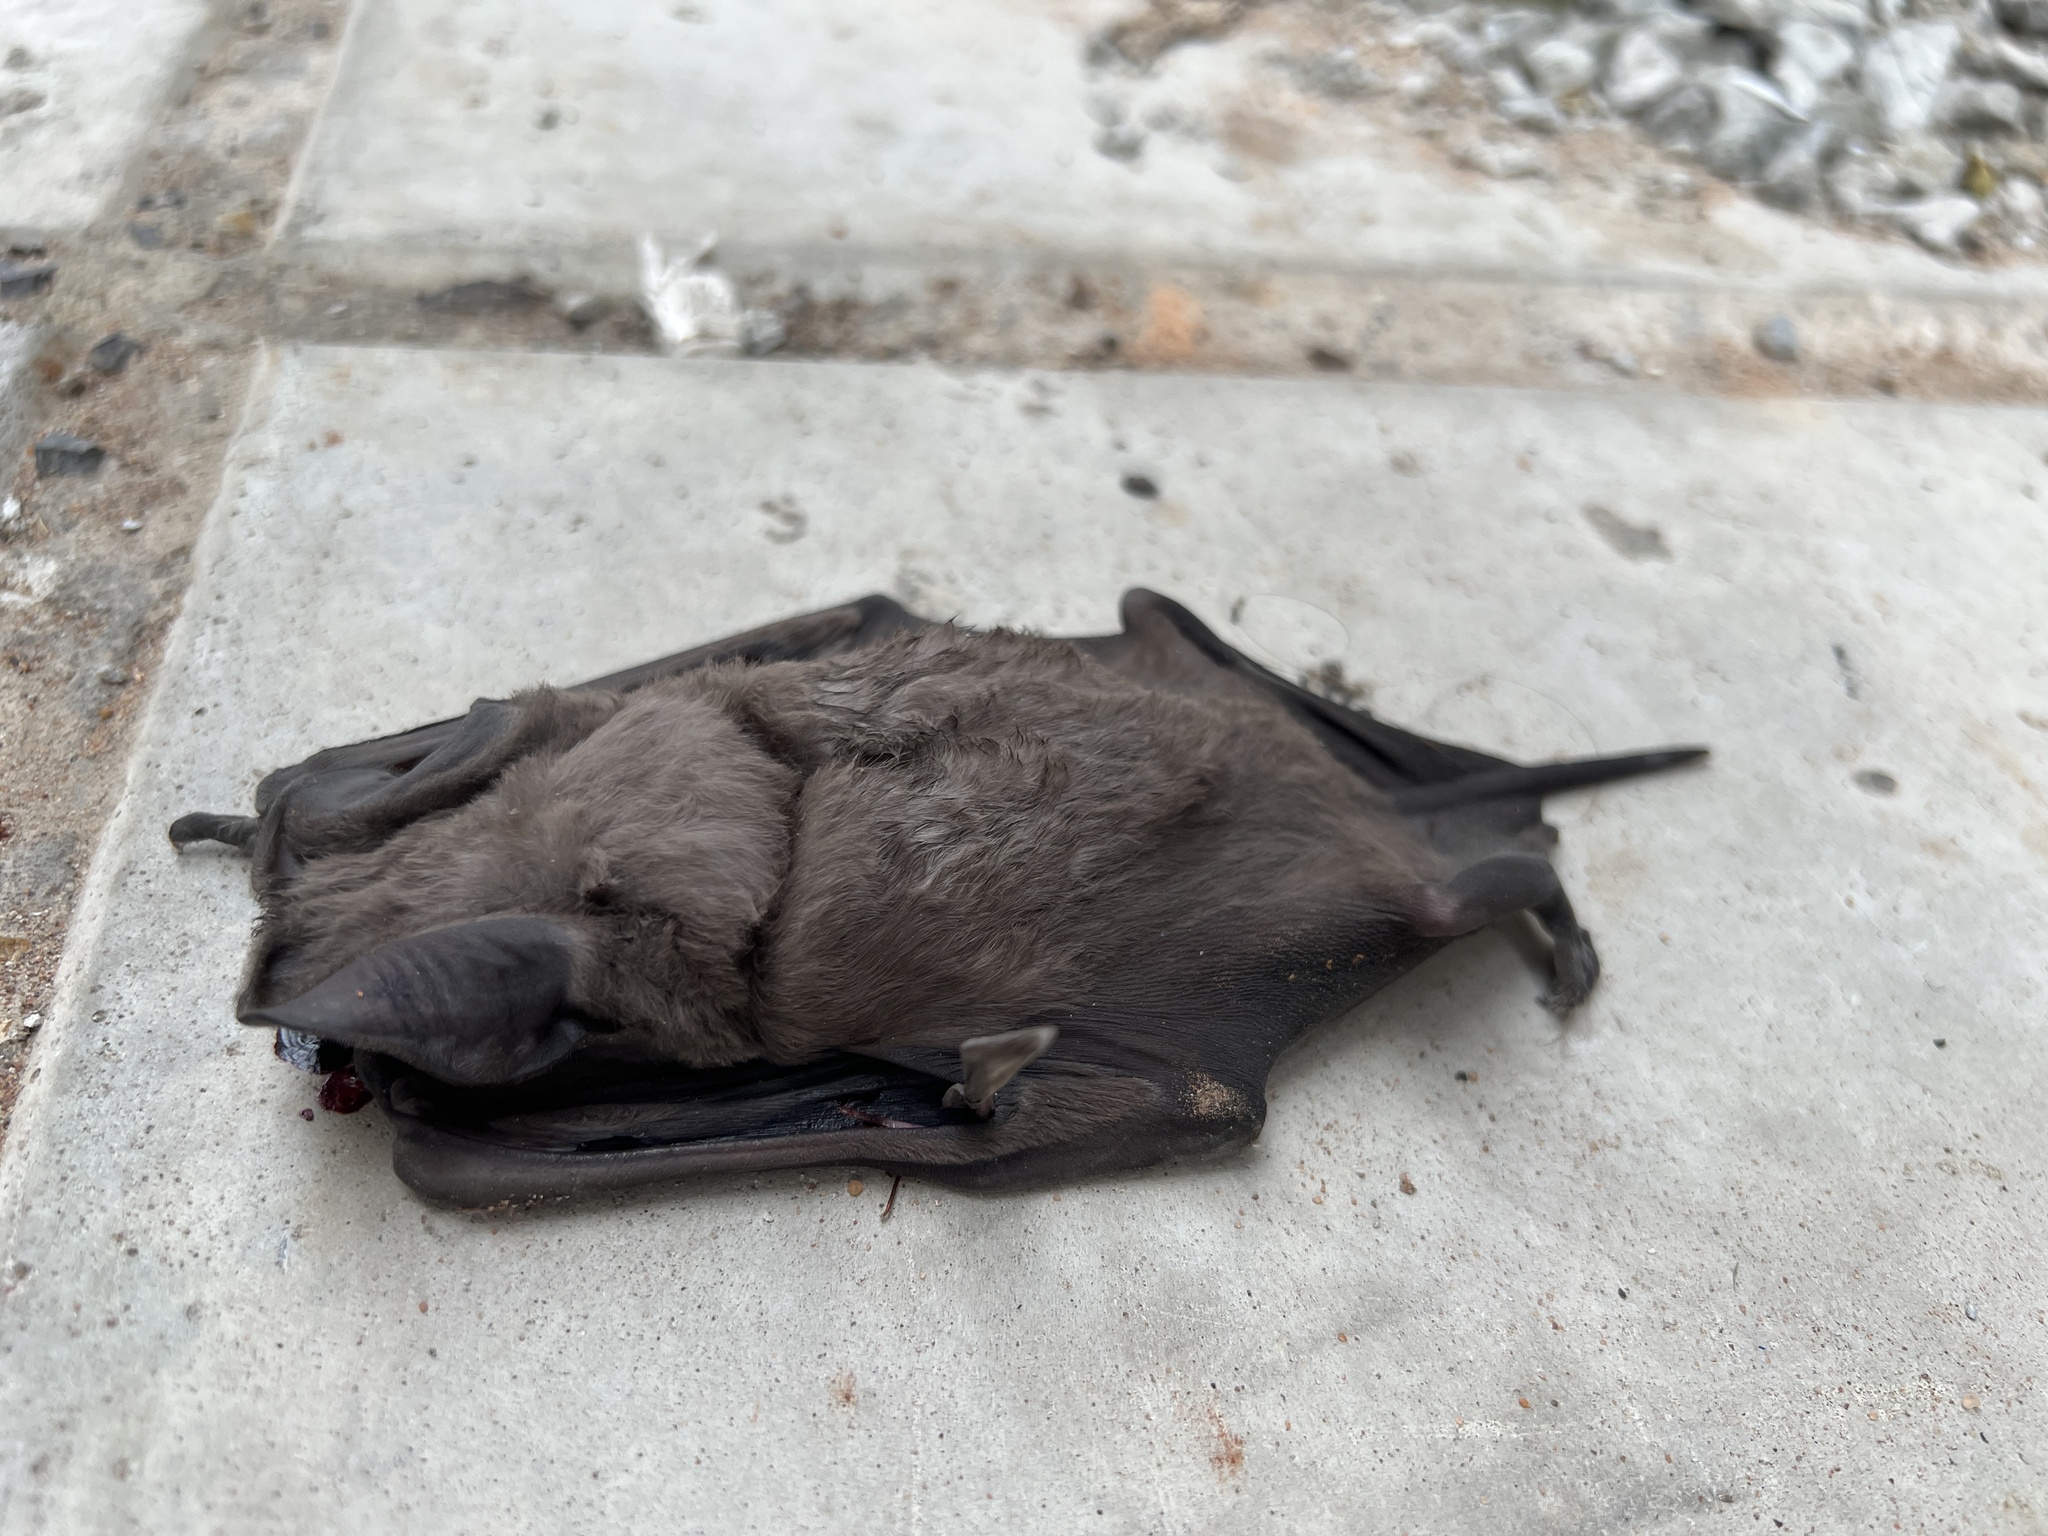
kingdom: Animalia
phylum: Chordata
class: Mammalia
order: Chiroptera
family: Molossidae
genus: Eumops
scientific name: Eumops perotis
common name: Greater bonneted bat
